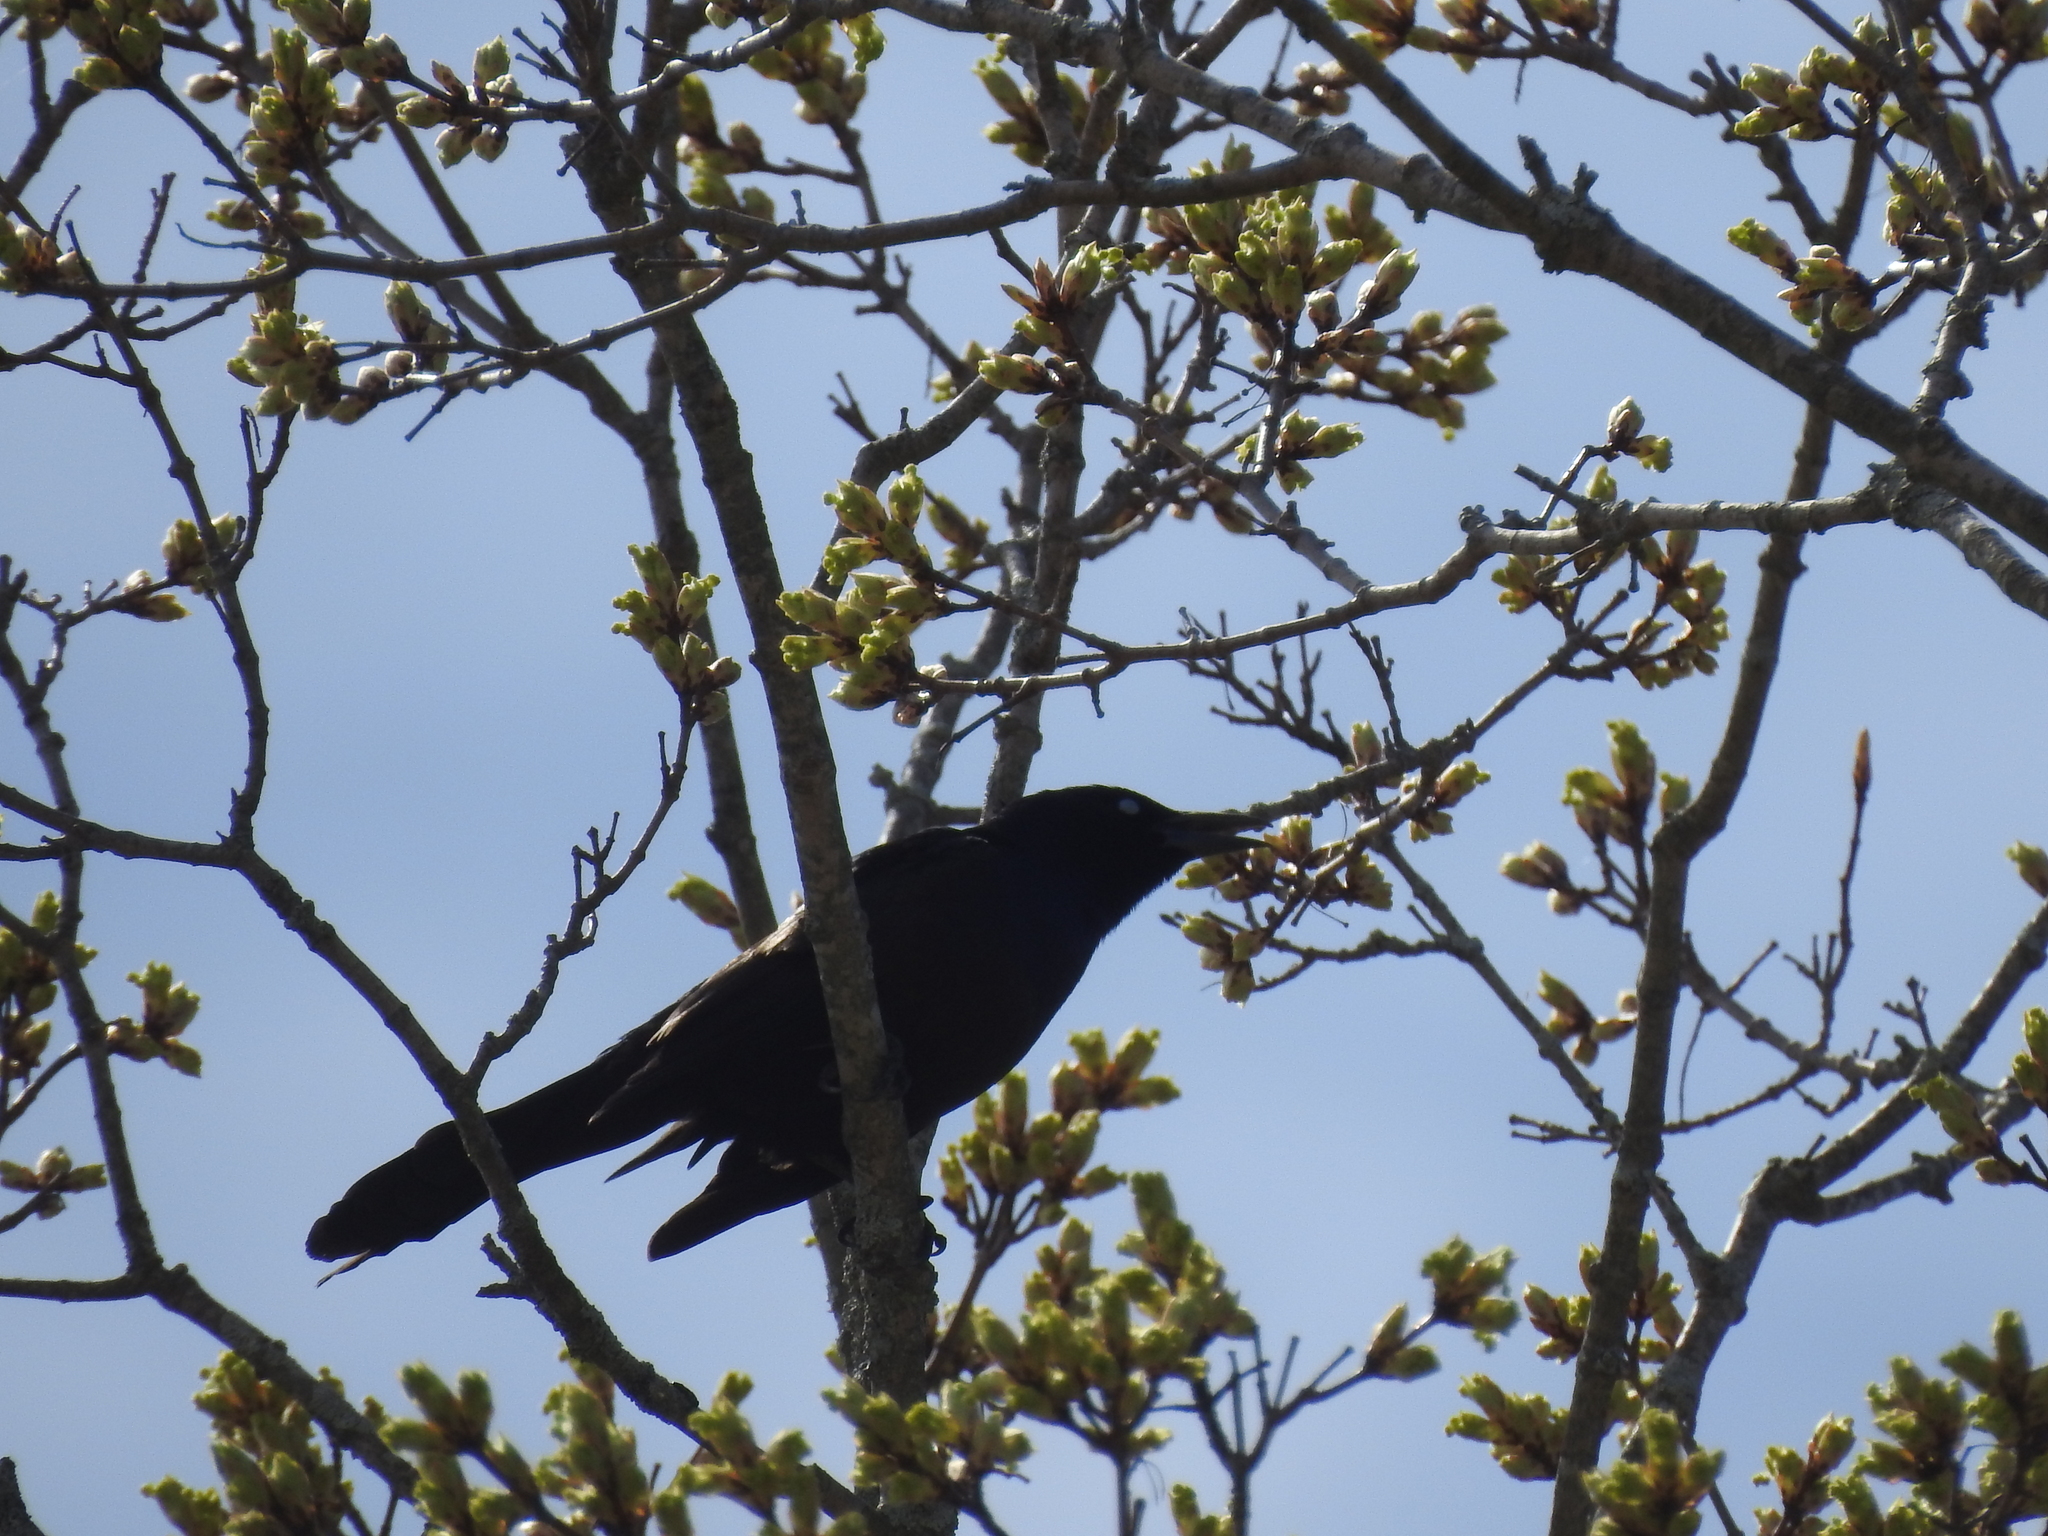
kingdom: Animalia
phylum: Chordata
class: Aves
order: Passeriformes
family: Icteridae
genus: Quiscalus
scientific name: Quiscalus quiscula
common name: Common grackle
